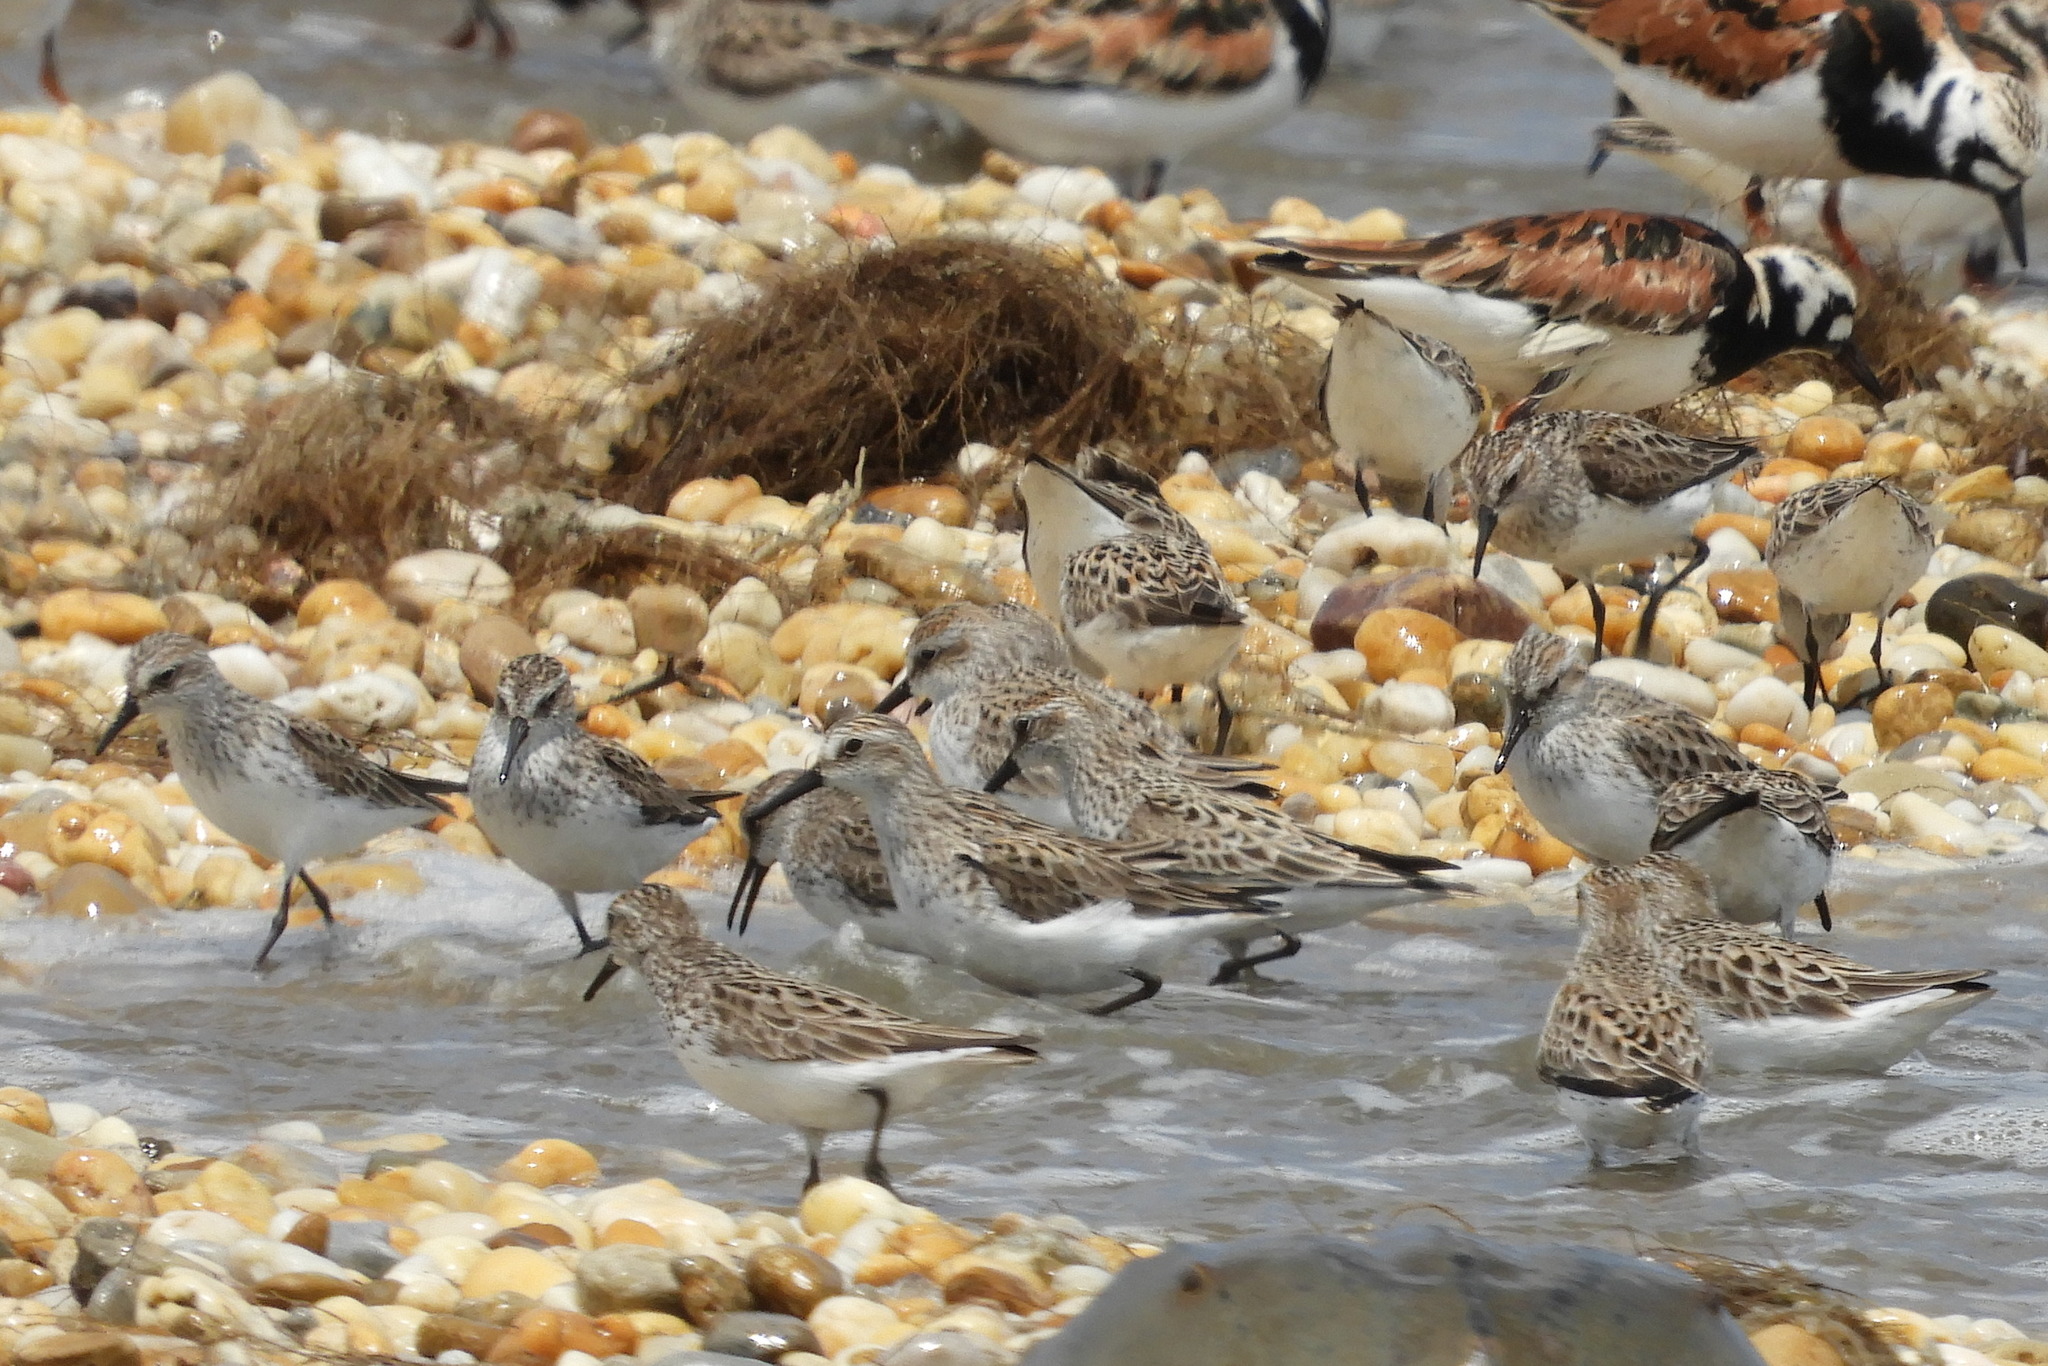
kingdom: Animalia
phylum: Chordata
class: Aves
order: Charadriiformes
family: Scolopacidae
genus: Calidris
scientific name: Calidris pusilla
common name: Semipalmated sandpiper
